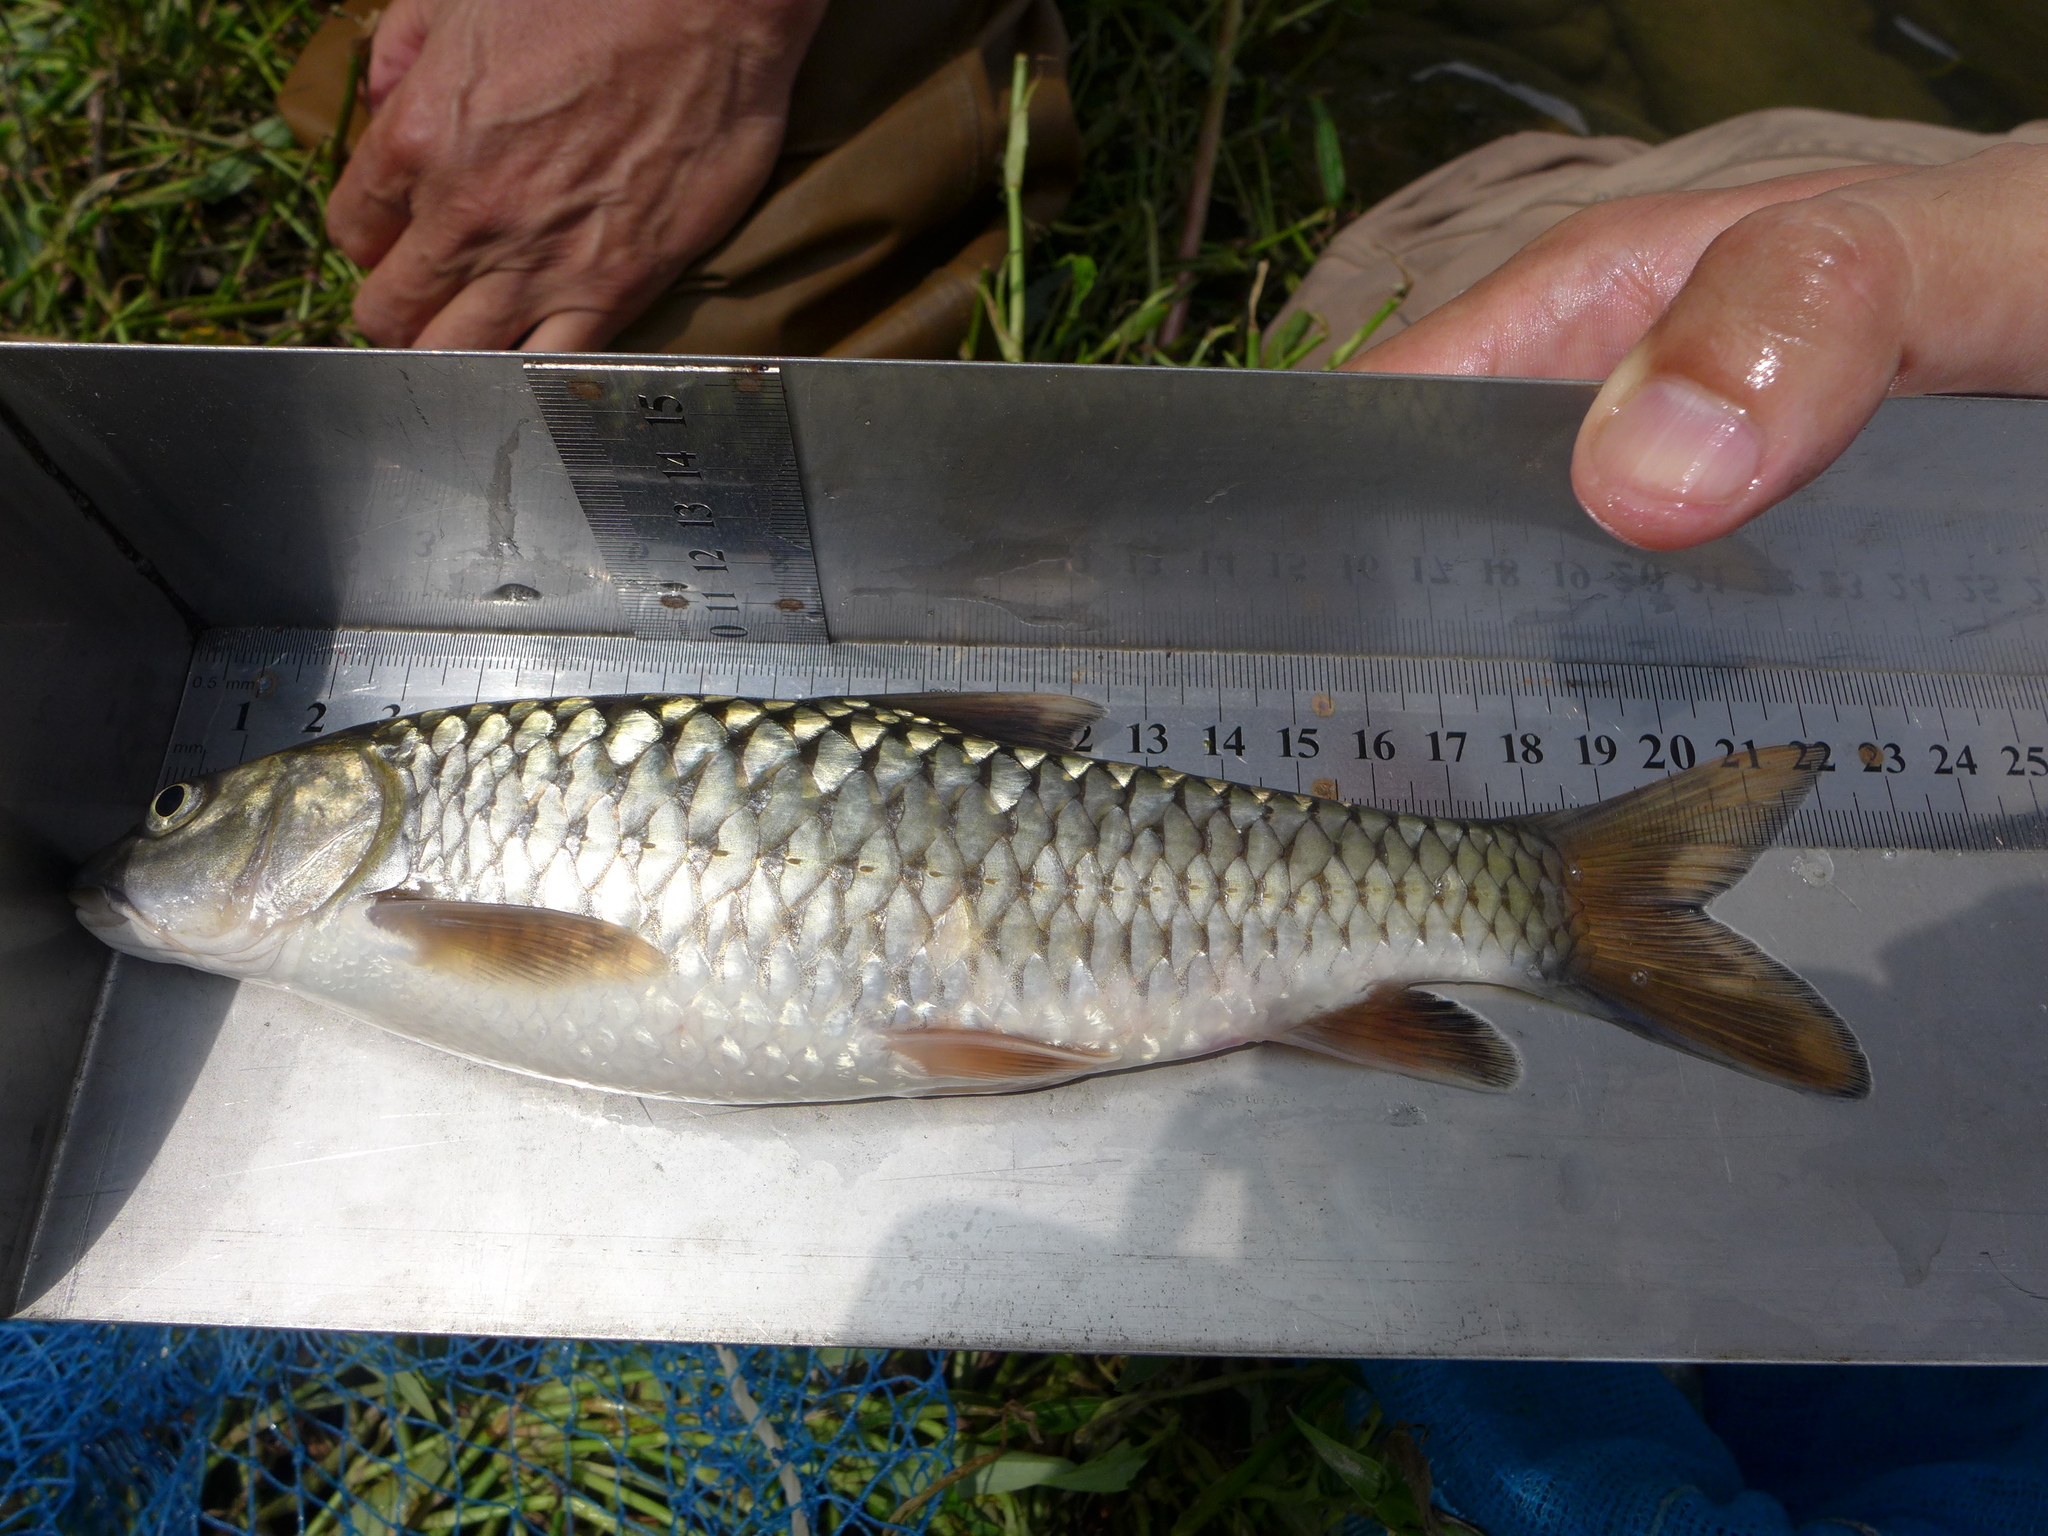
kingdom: Animalia
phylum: Chordata
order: Cypriniformes
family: Cyprinidae
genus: Spinibarbus
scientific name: Spinibarbus hollandi
